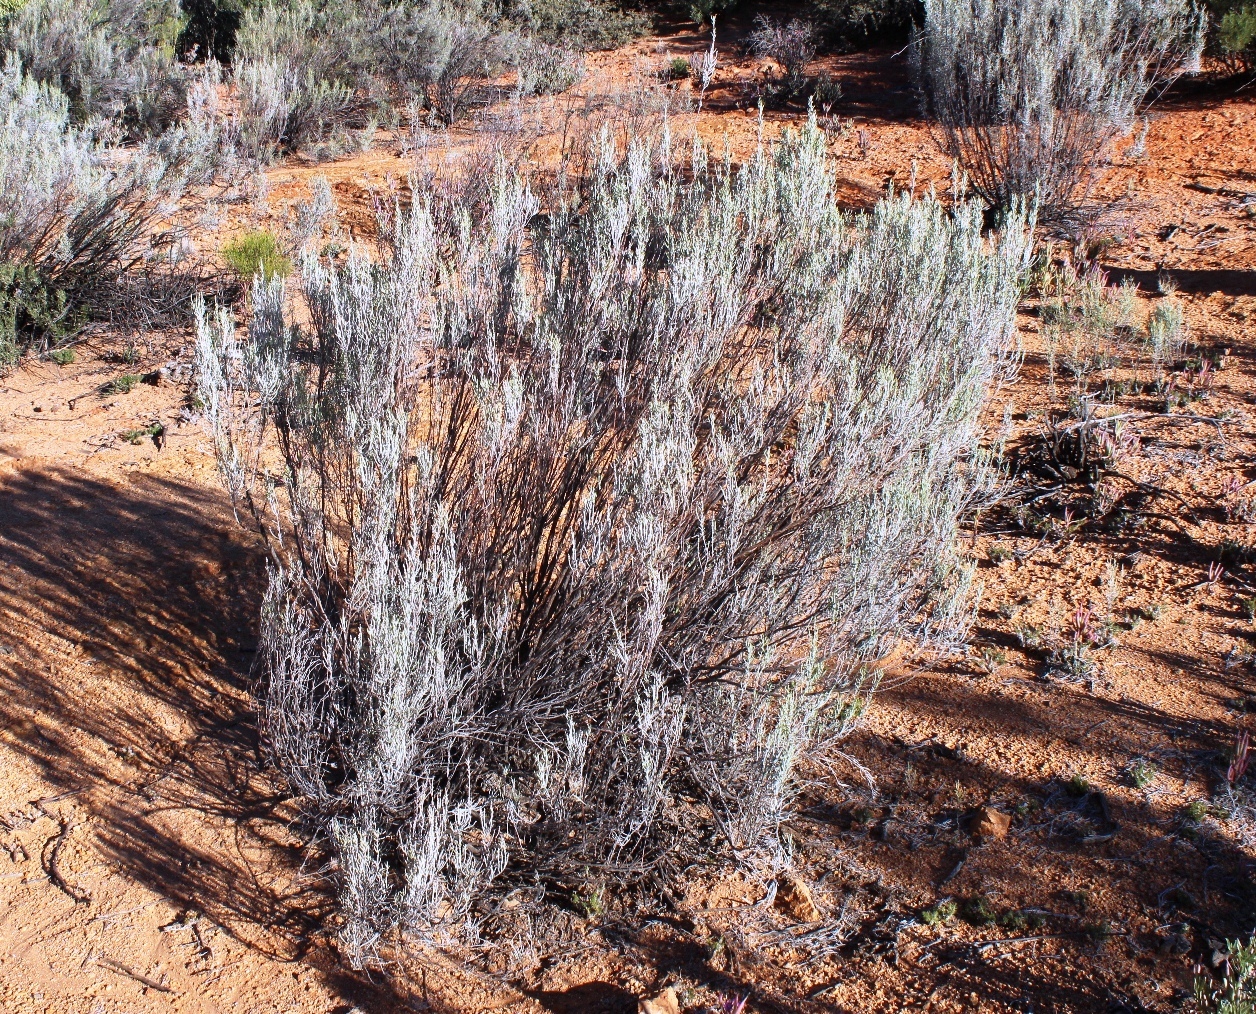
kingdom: Plantae
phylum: Tracheophyta
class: Magnoliopsida
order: Asterales
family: Asteraceae
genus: Dicerothamnus
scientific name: Dicerothamnus rhinocerotis
